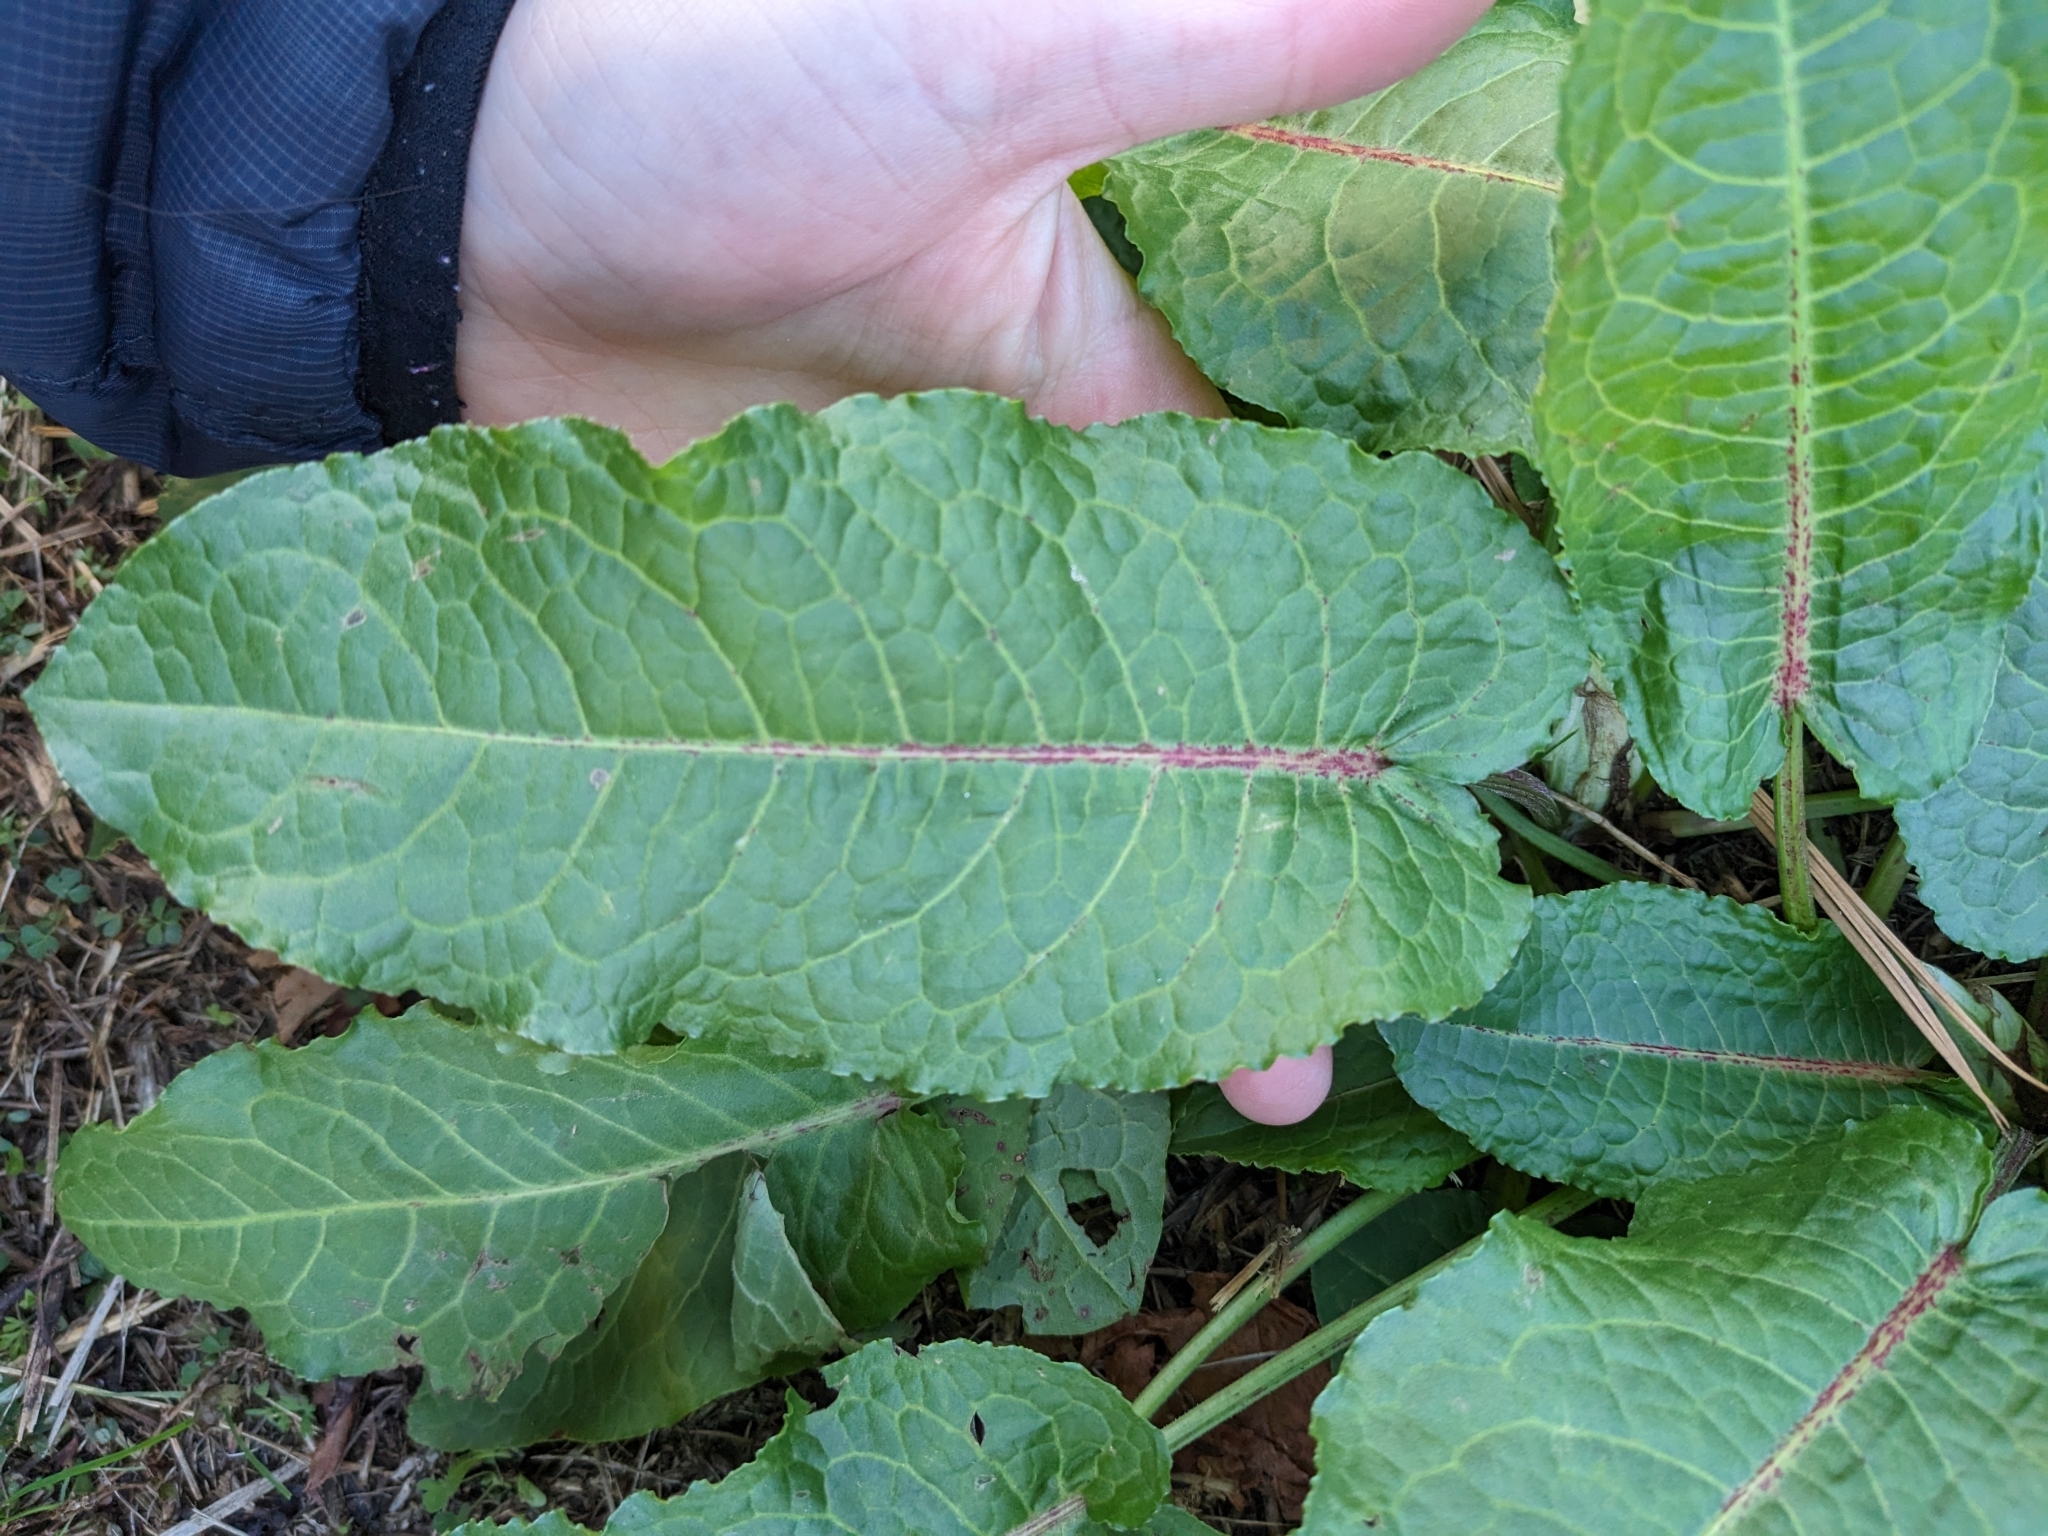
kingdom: Plantae
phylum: Tracheophyta
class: Magnoliopsida
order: Caryophyllales
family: Polygonaceae
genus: Rumex
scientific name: Rumex obtusifolius
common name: Bitter dock
